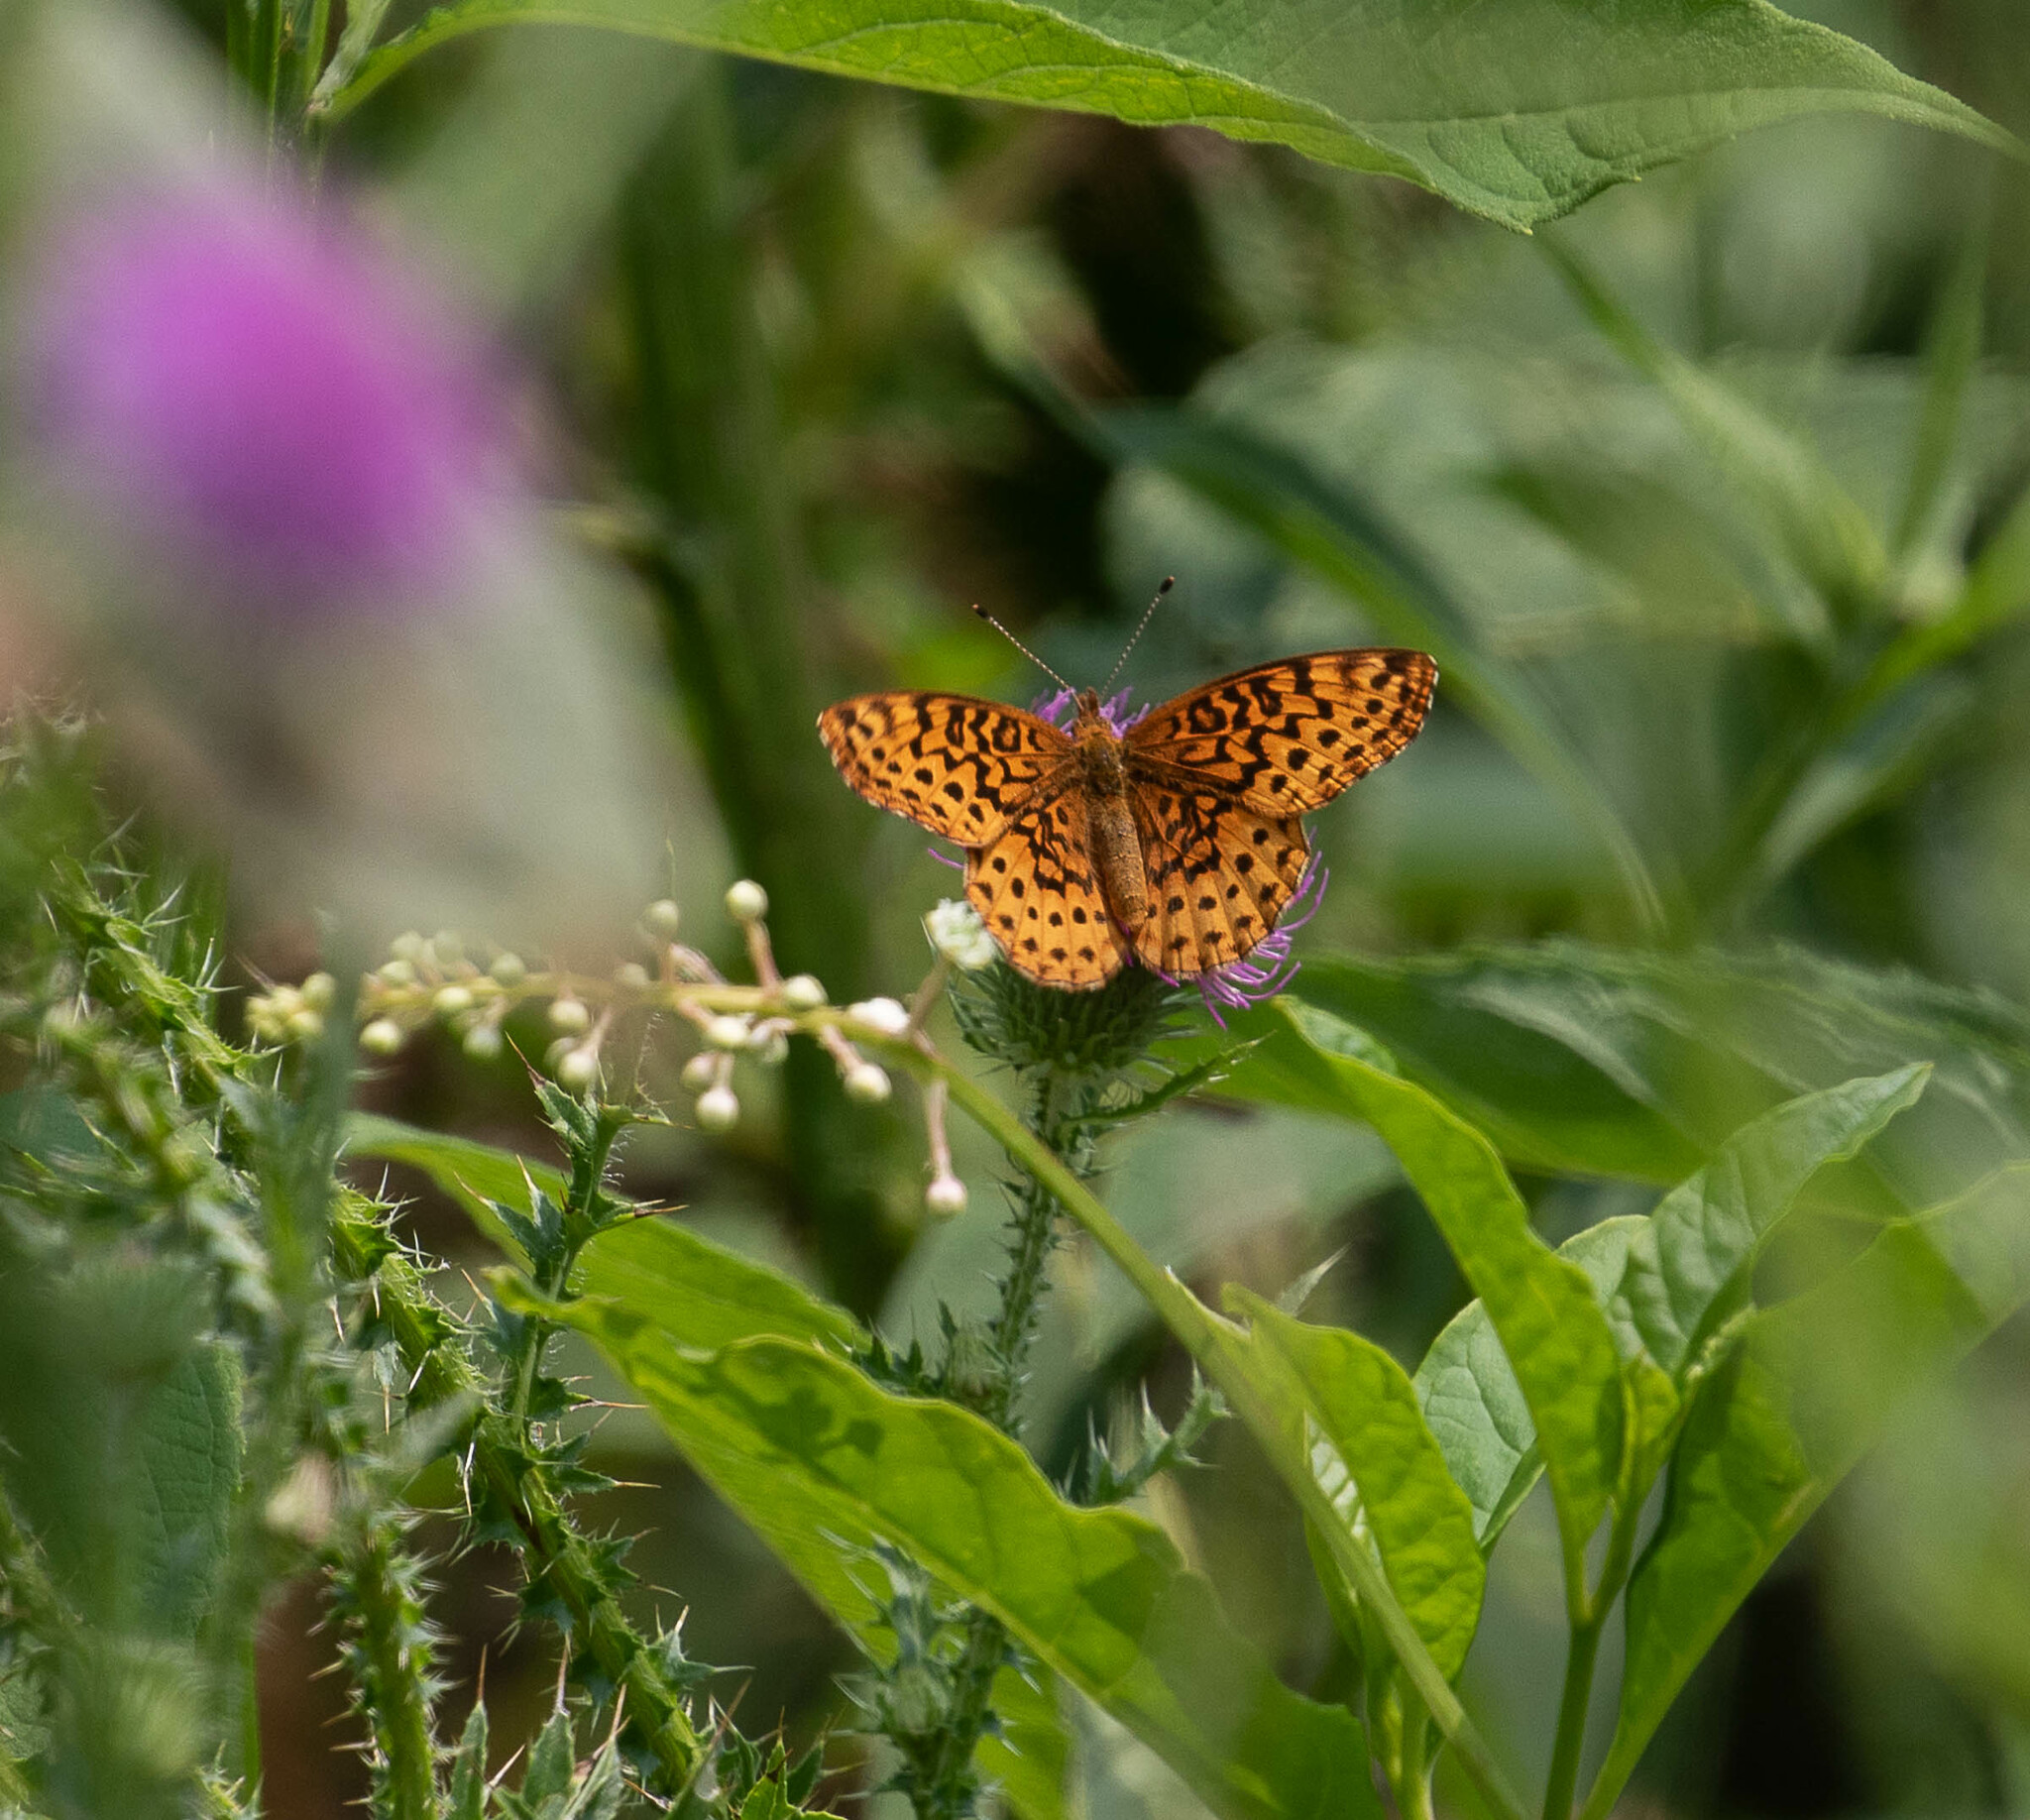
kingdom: Animalia
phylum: Arthropoda
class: Insecta
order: Lepidoptera
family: Nymphalidae
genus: Clossiana
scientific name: Clossiana toddi
